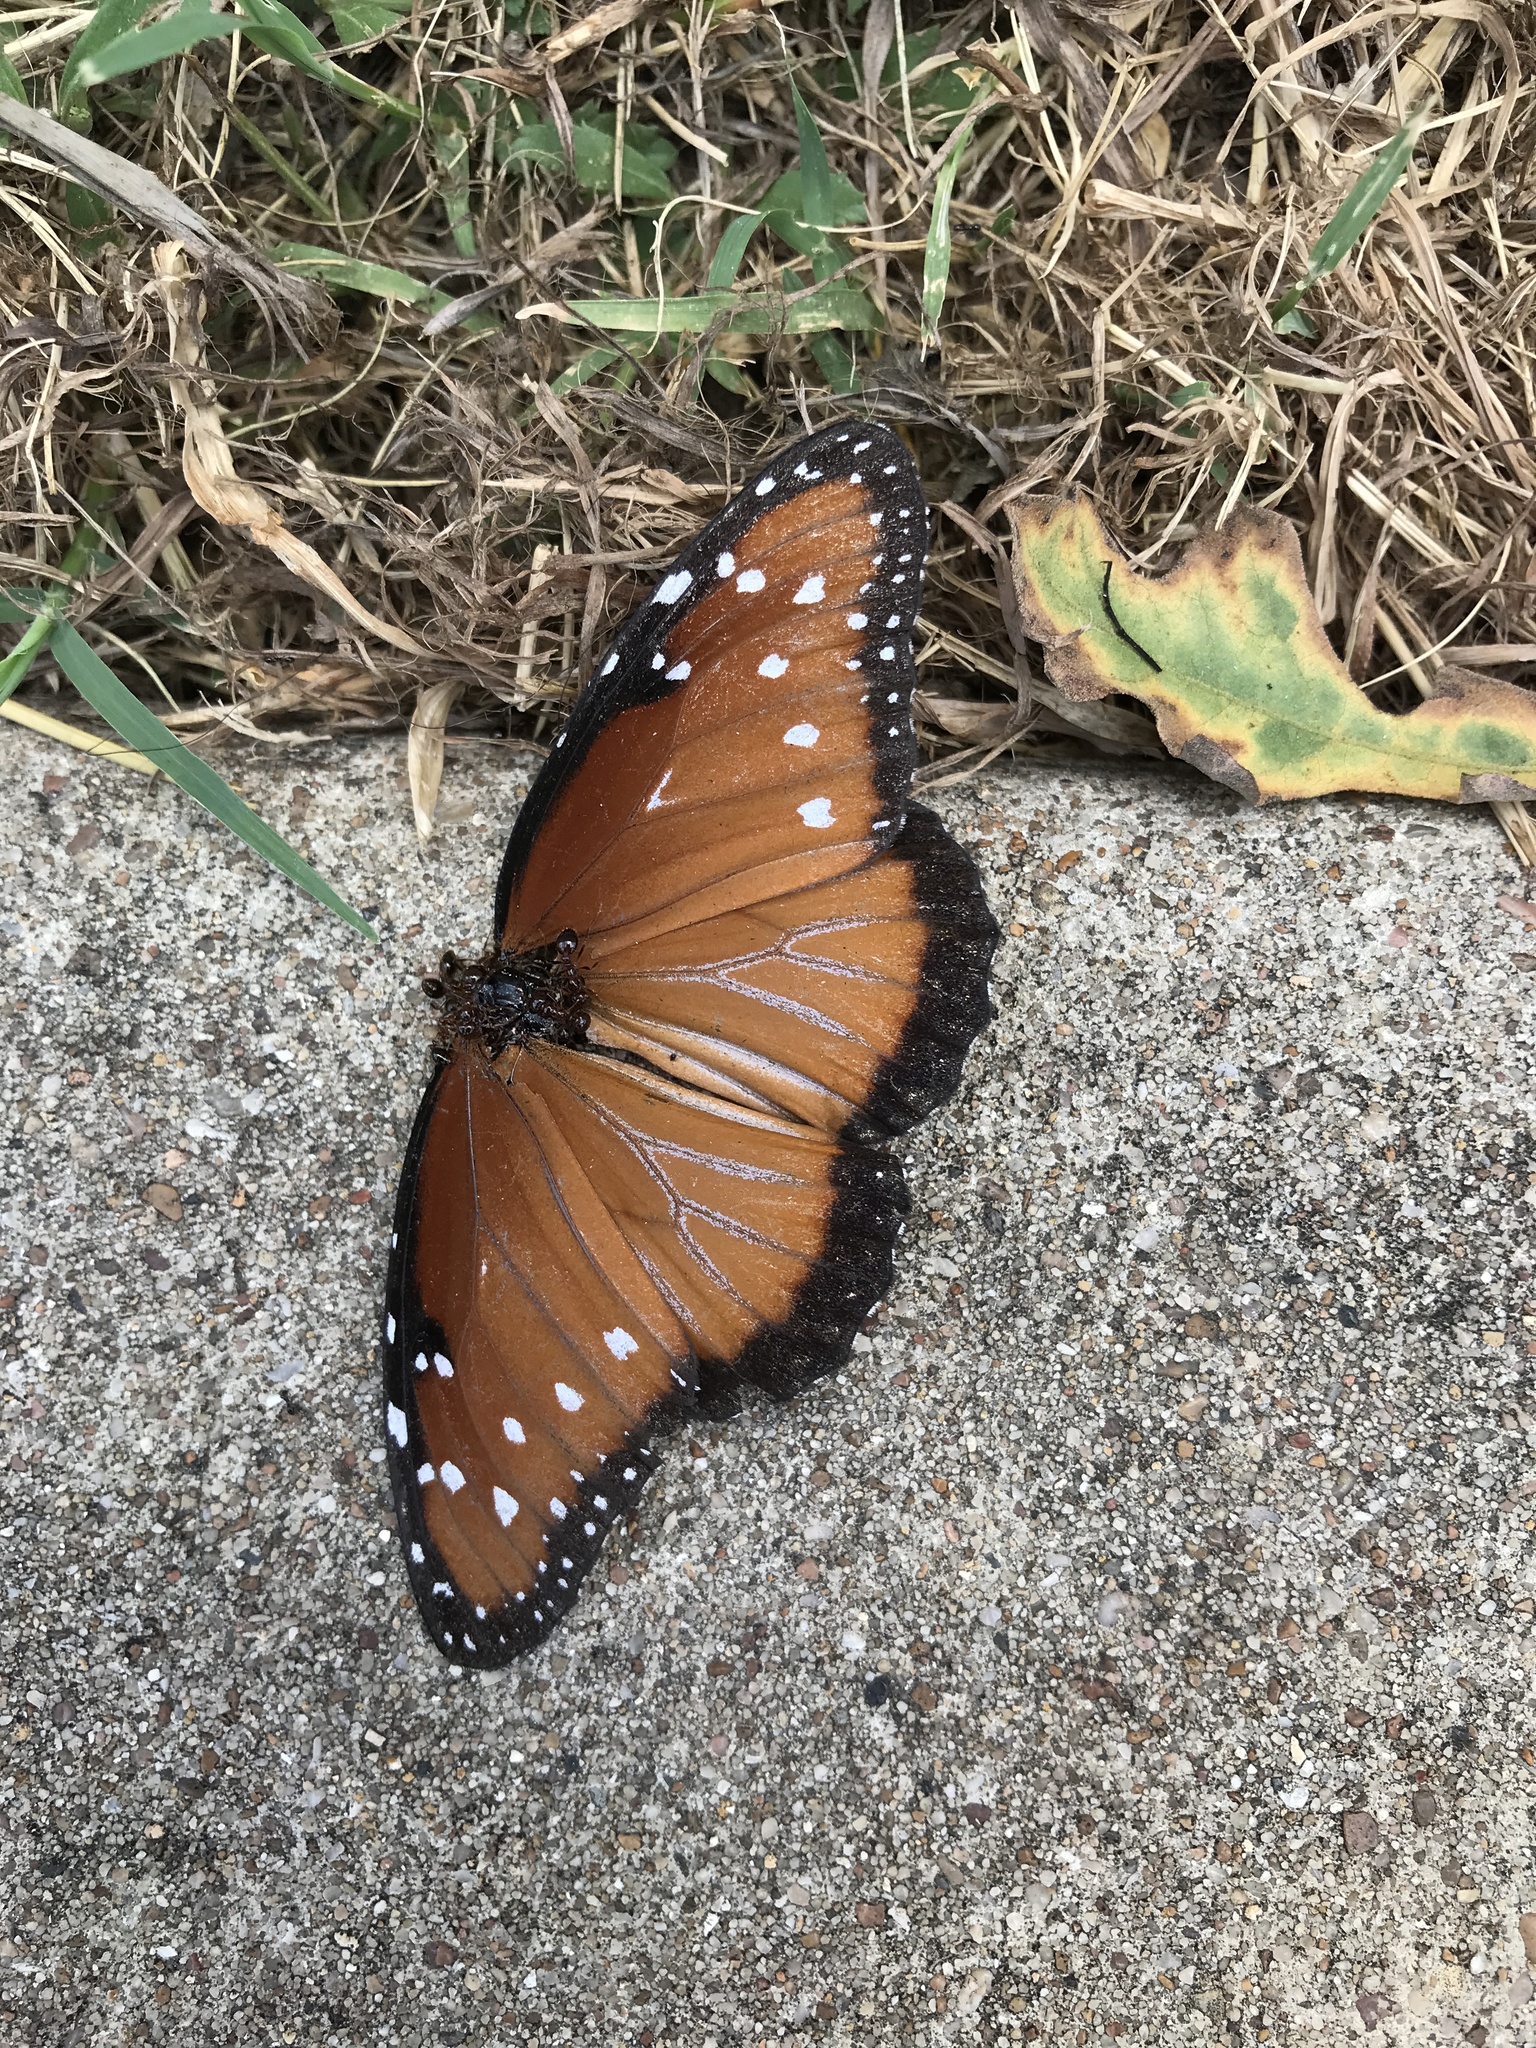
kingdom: Animalia
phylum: Arthropoda
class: Insecta
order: Lepidoptera
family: Nymphalidae
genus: Danaus
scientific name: Danaus gilippus
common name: Queen
